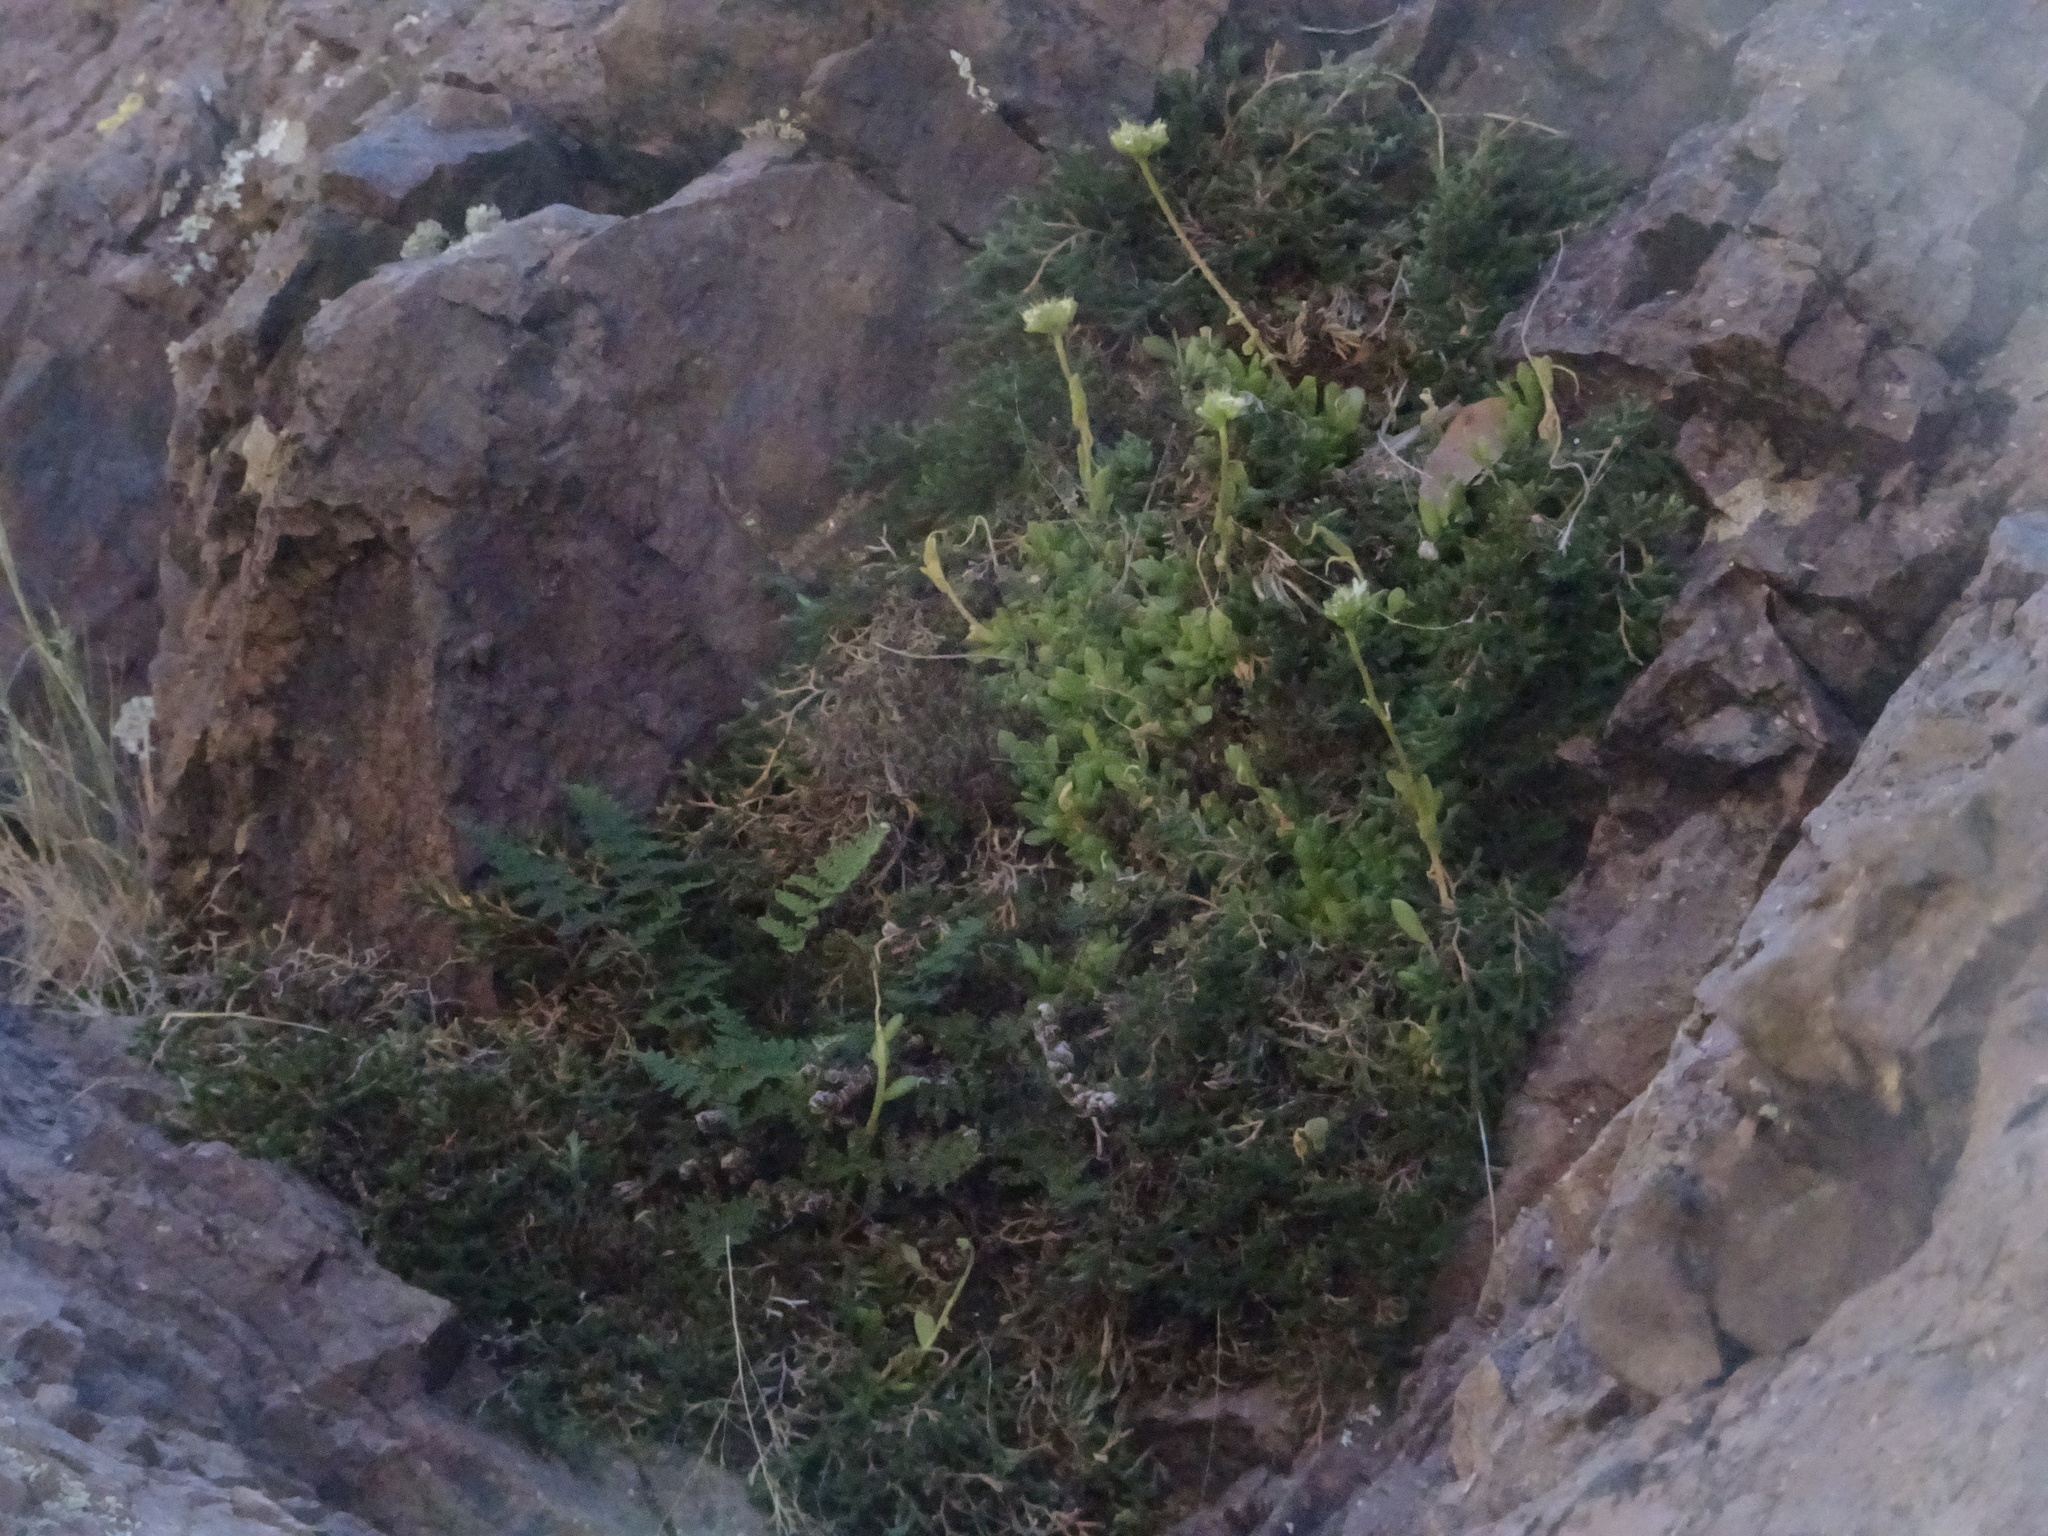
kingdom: Plantae
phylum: Tracheophyta
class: Magnoliopsida
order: Saxifragales
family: Crassulaceae
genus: Sedum
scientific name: Sedum wrightii
